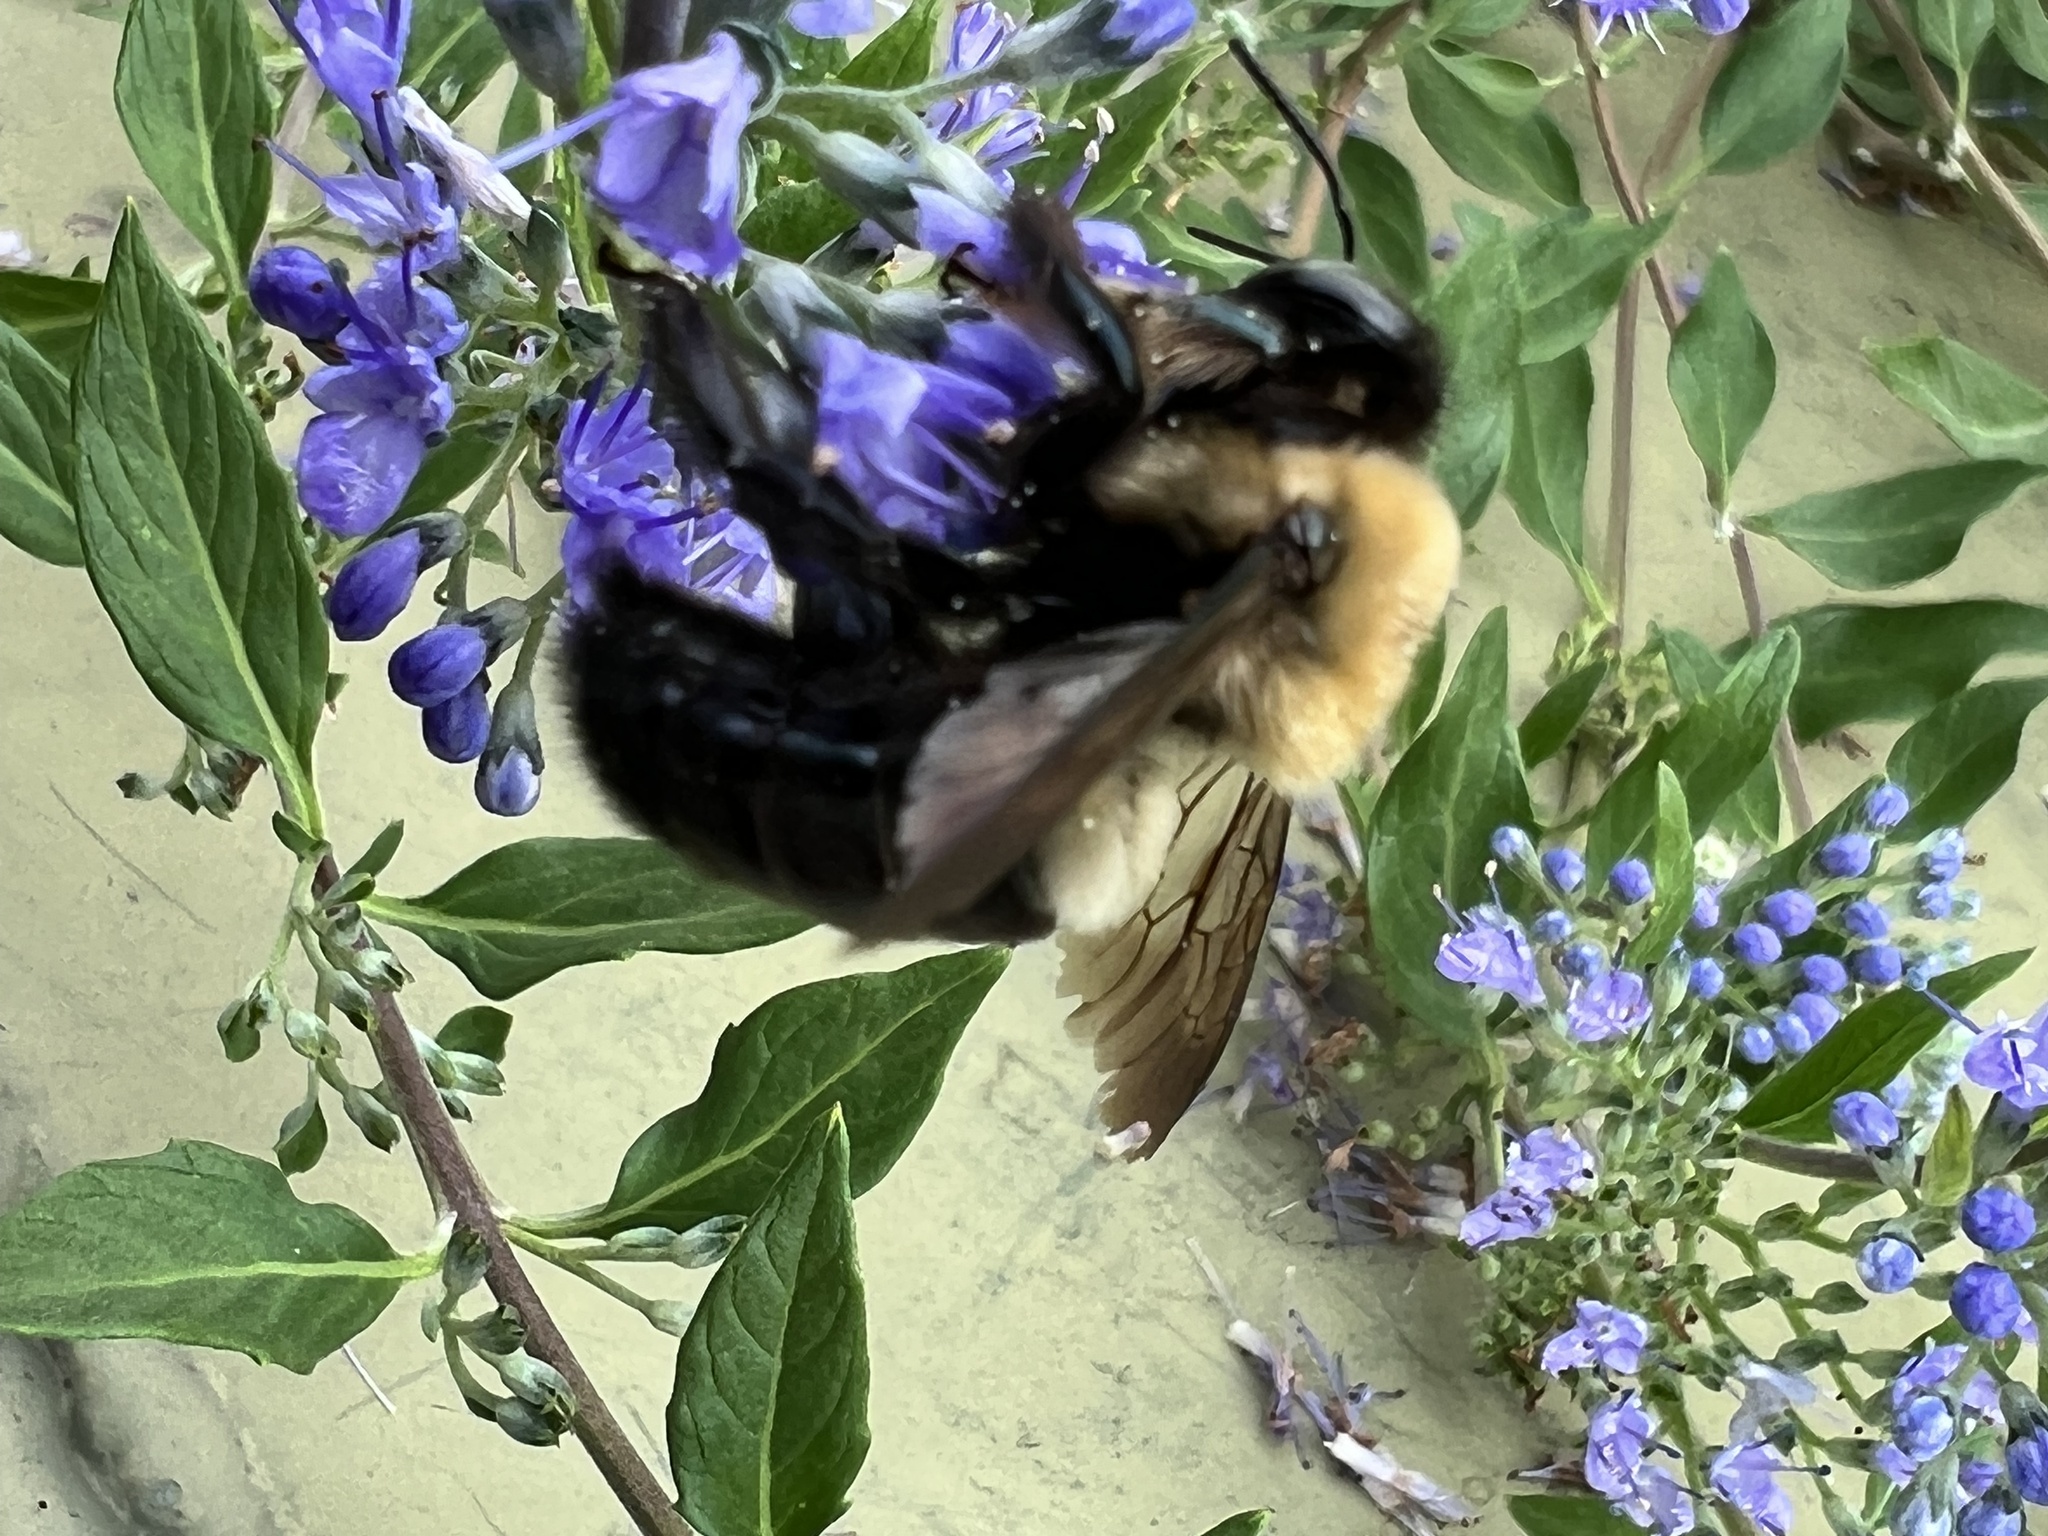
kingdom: Animalia
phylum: Arthropoda
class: Insecta
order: Hymenoptera
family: Apidae
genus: Xylocopa
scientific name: Xylocopa virginica
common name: Carpenter bee
